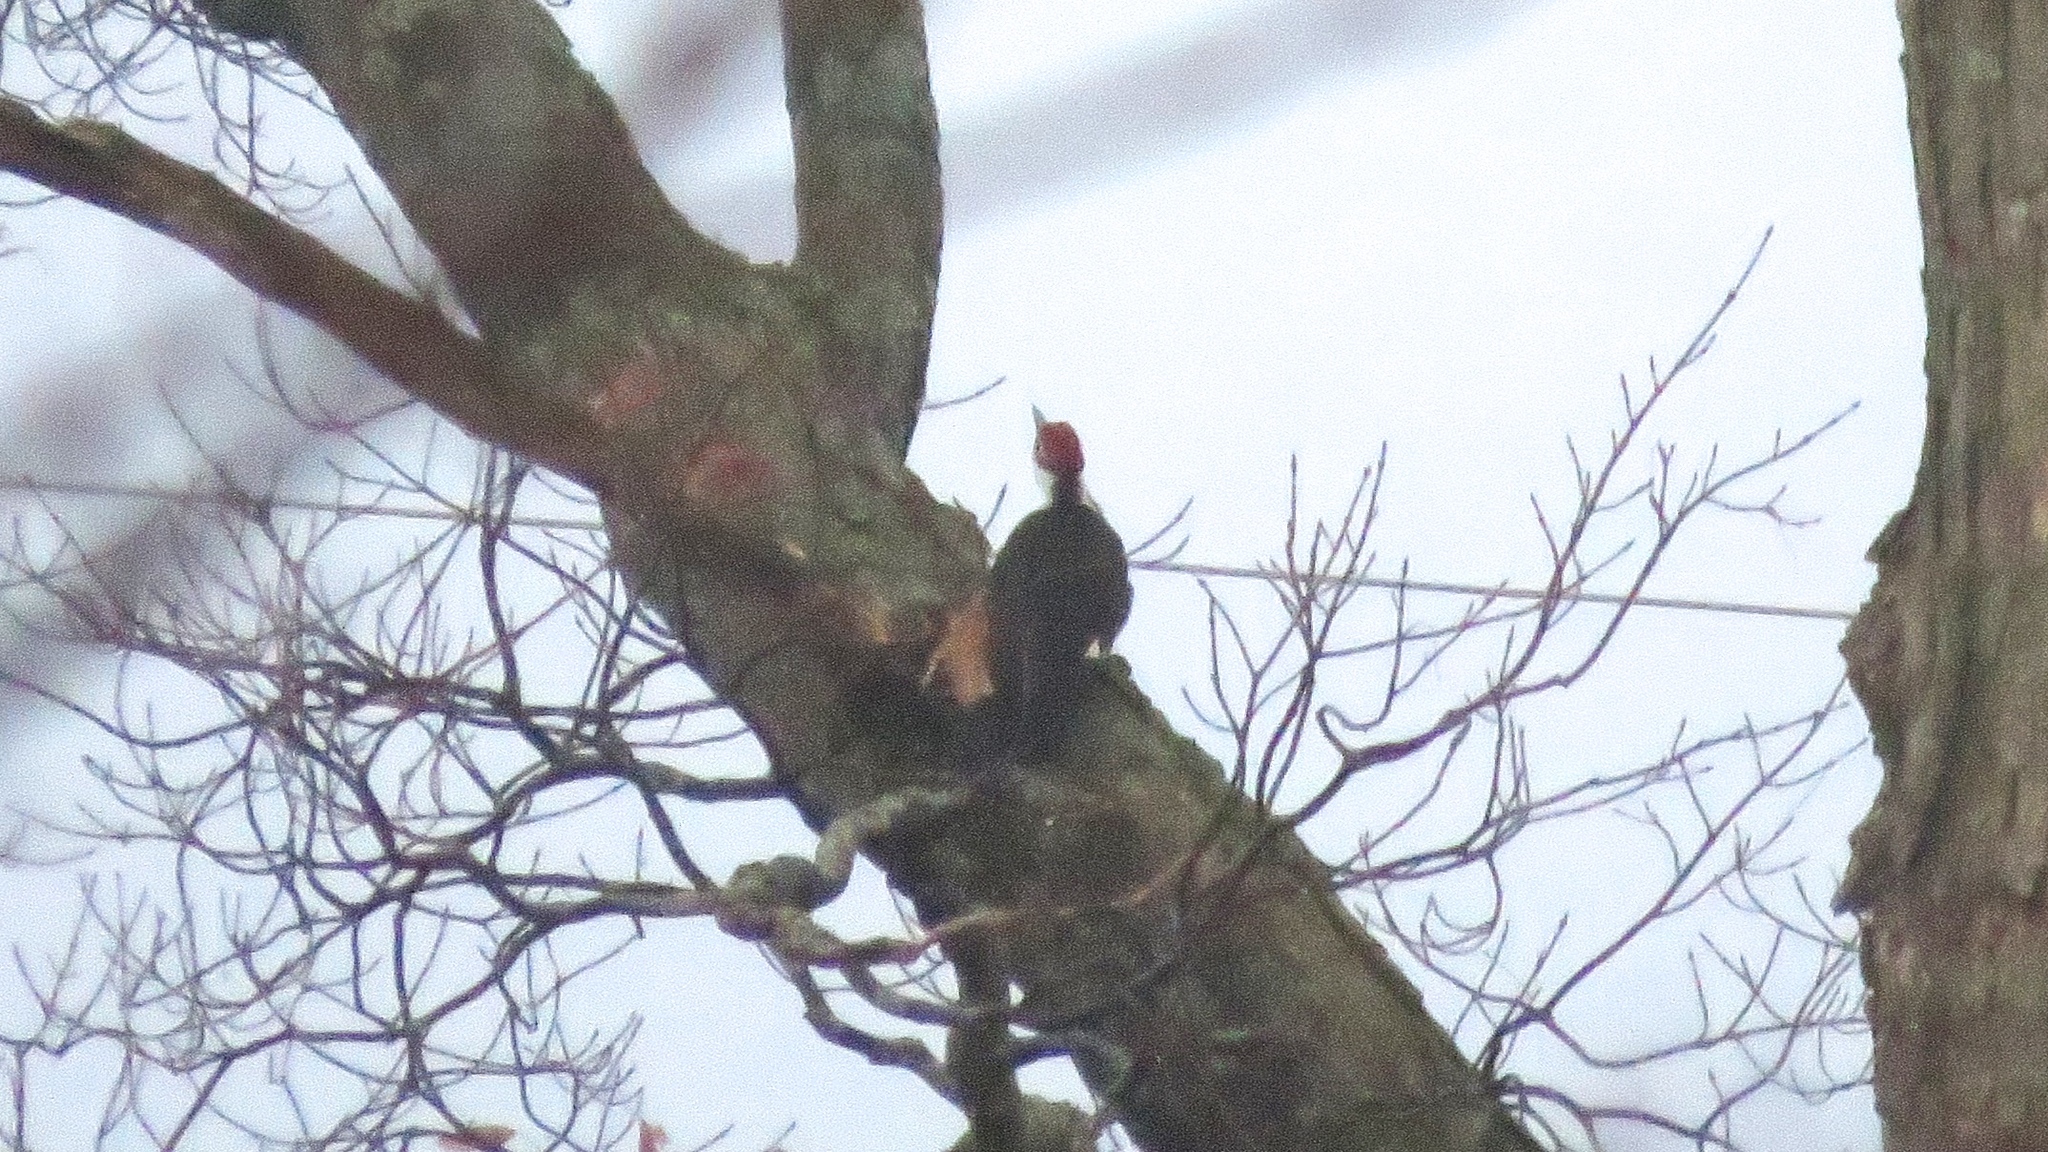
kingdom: Animalia
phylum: Chordata
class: Aves
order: Piciformes
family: Picidae
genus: Dryocopus
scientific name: Dryocopus pileatus
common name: Pileated woodpecker
